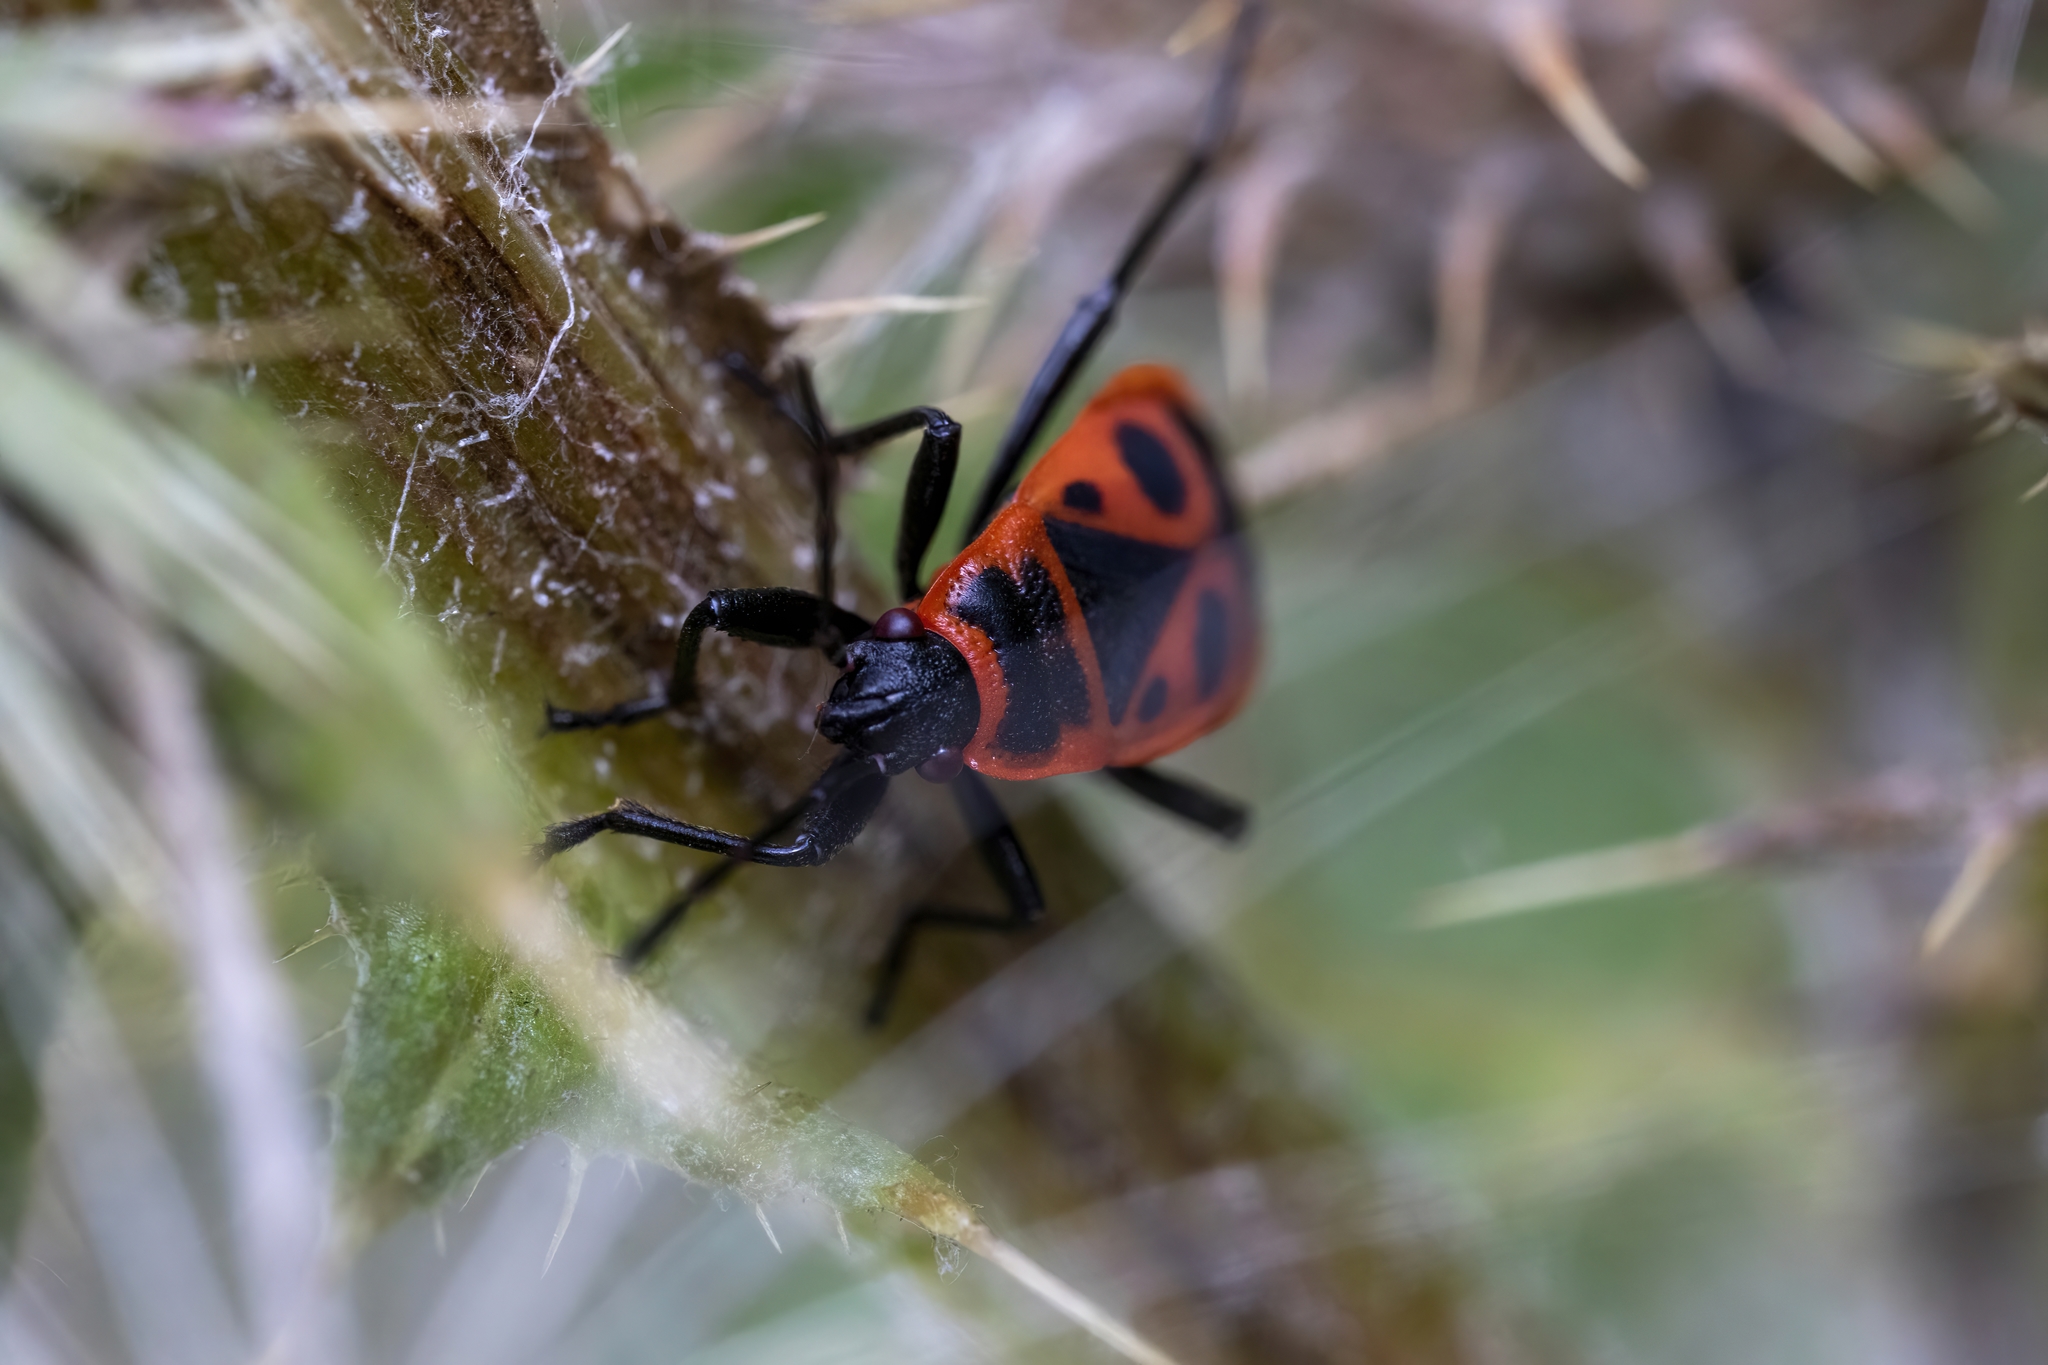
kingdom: Animalia
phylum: Arthropoda
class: Insecta
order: Hemiptera
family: Pyrrhocoridae
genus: Pyrrhocoris
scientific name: Pyrrhocoris apterus
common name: Firebug
